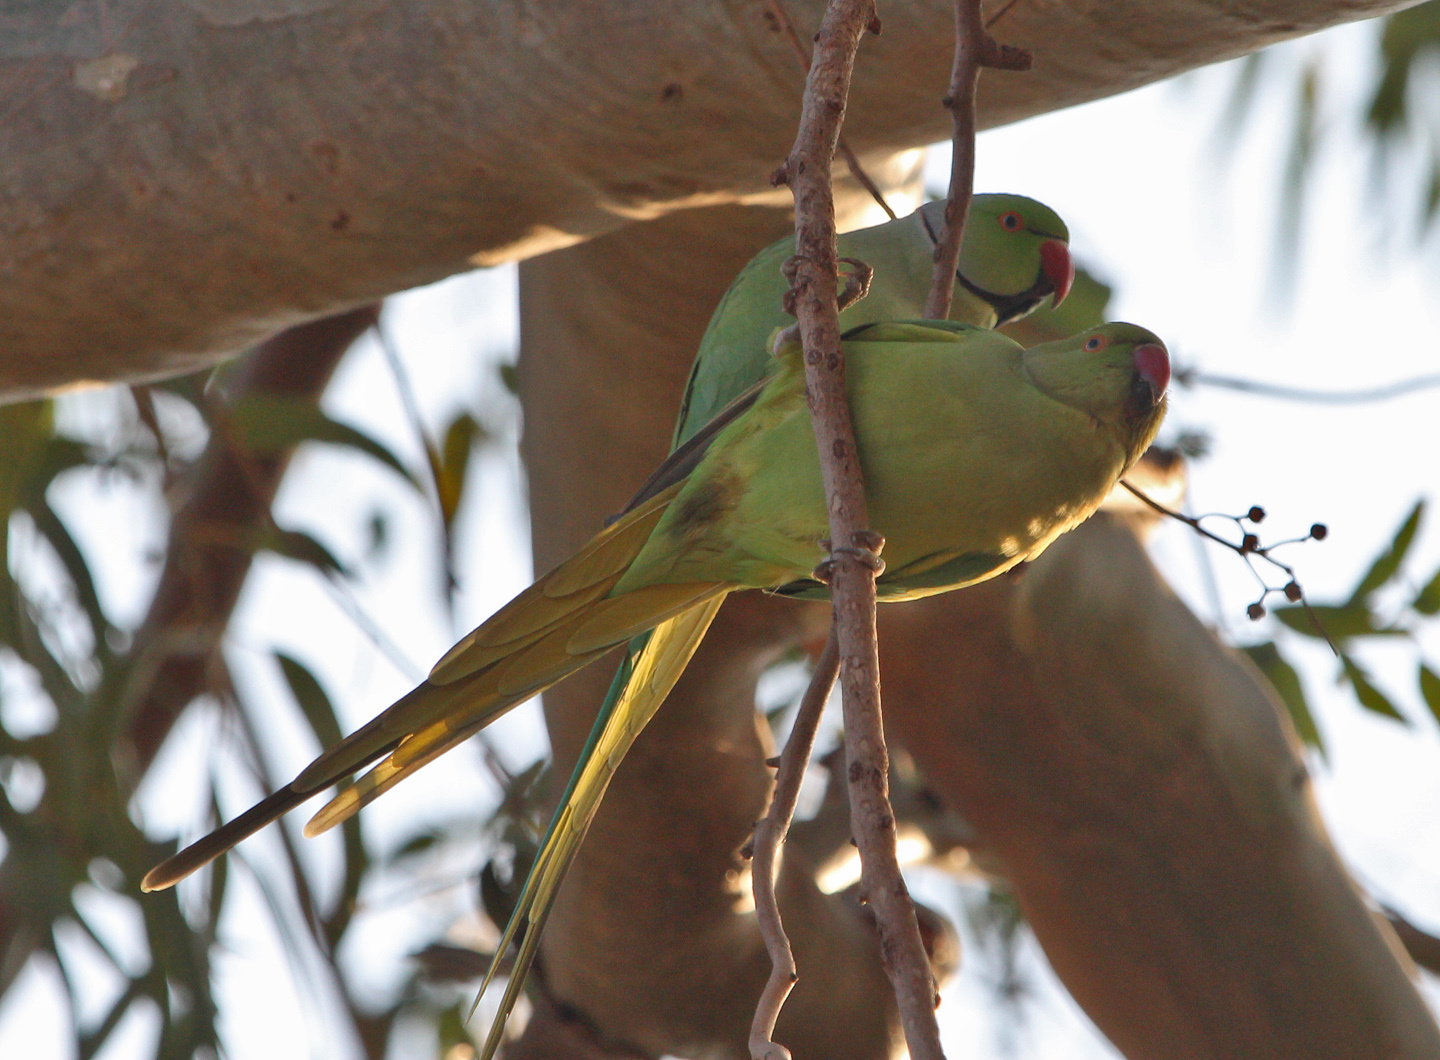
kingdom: Animalia
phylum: Chordata
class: Aves
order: Psittaciformes
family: Psittacidae
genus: Psittacula
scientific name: Psittacula krameri
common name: Rose-ringed parakeet
